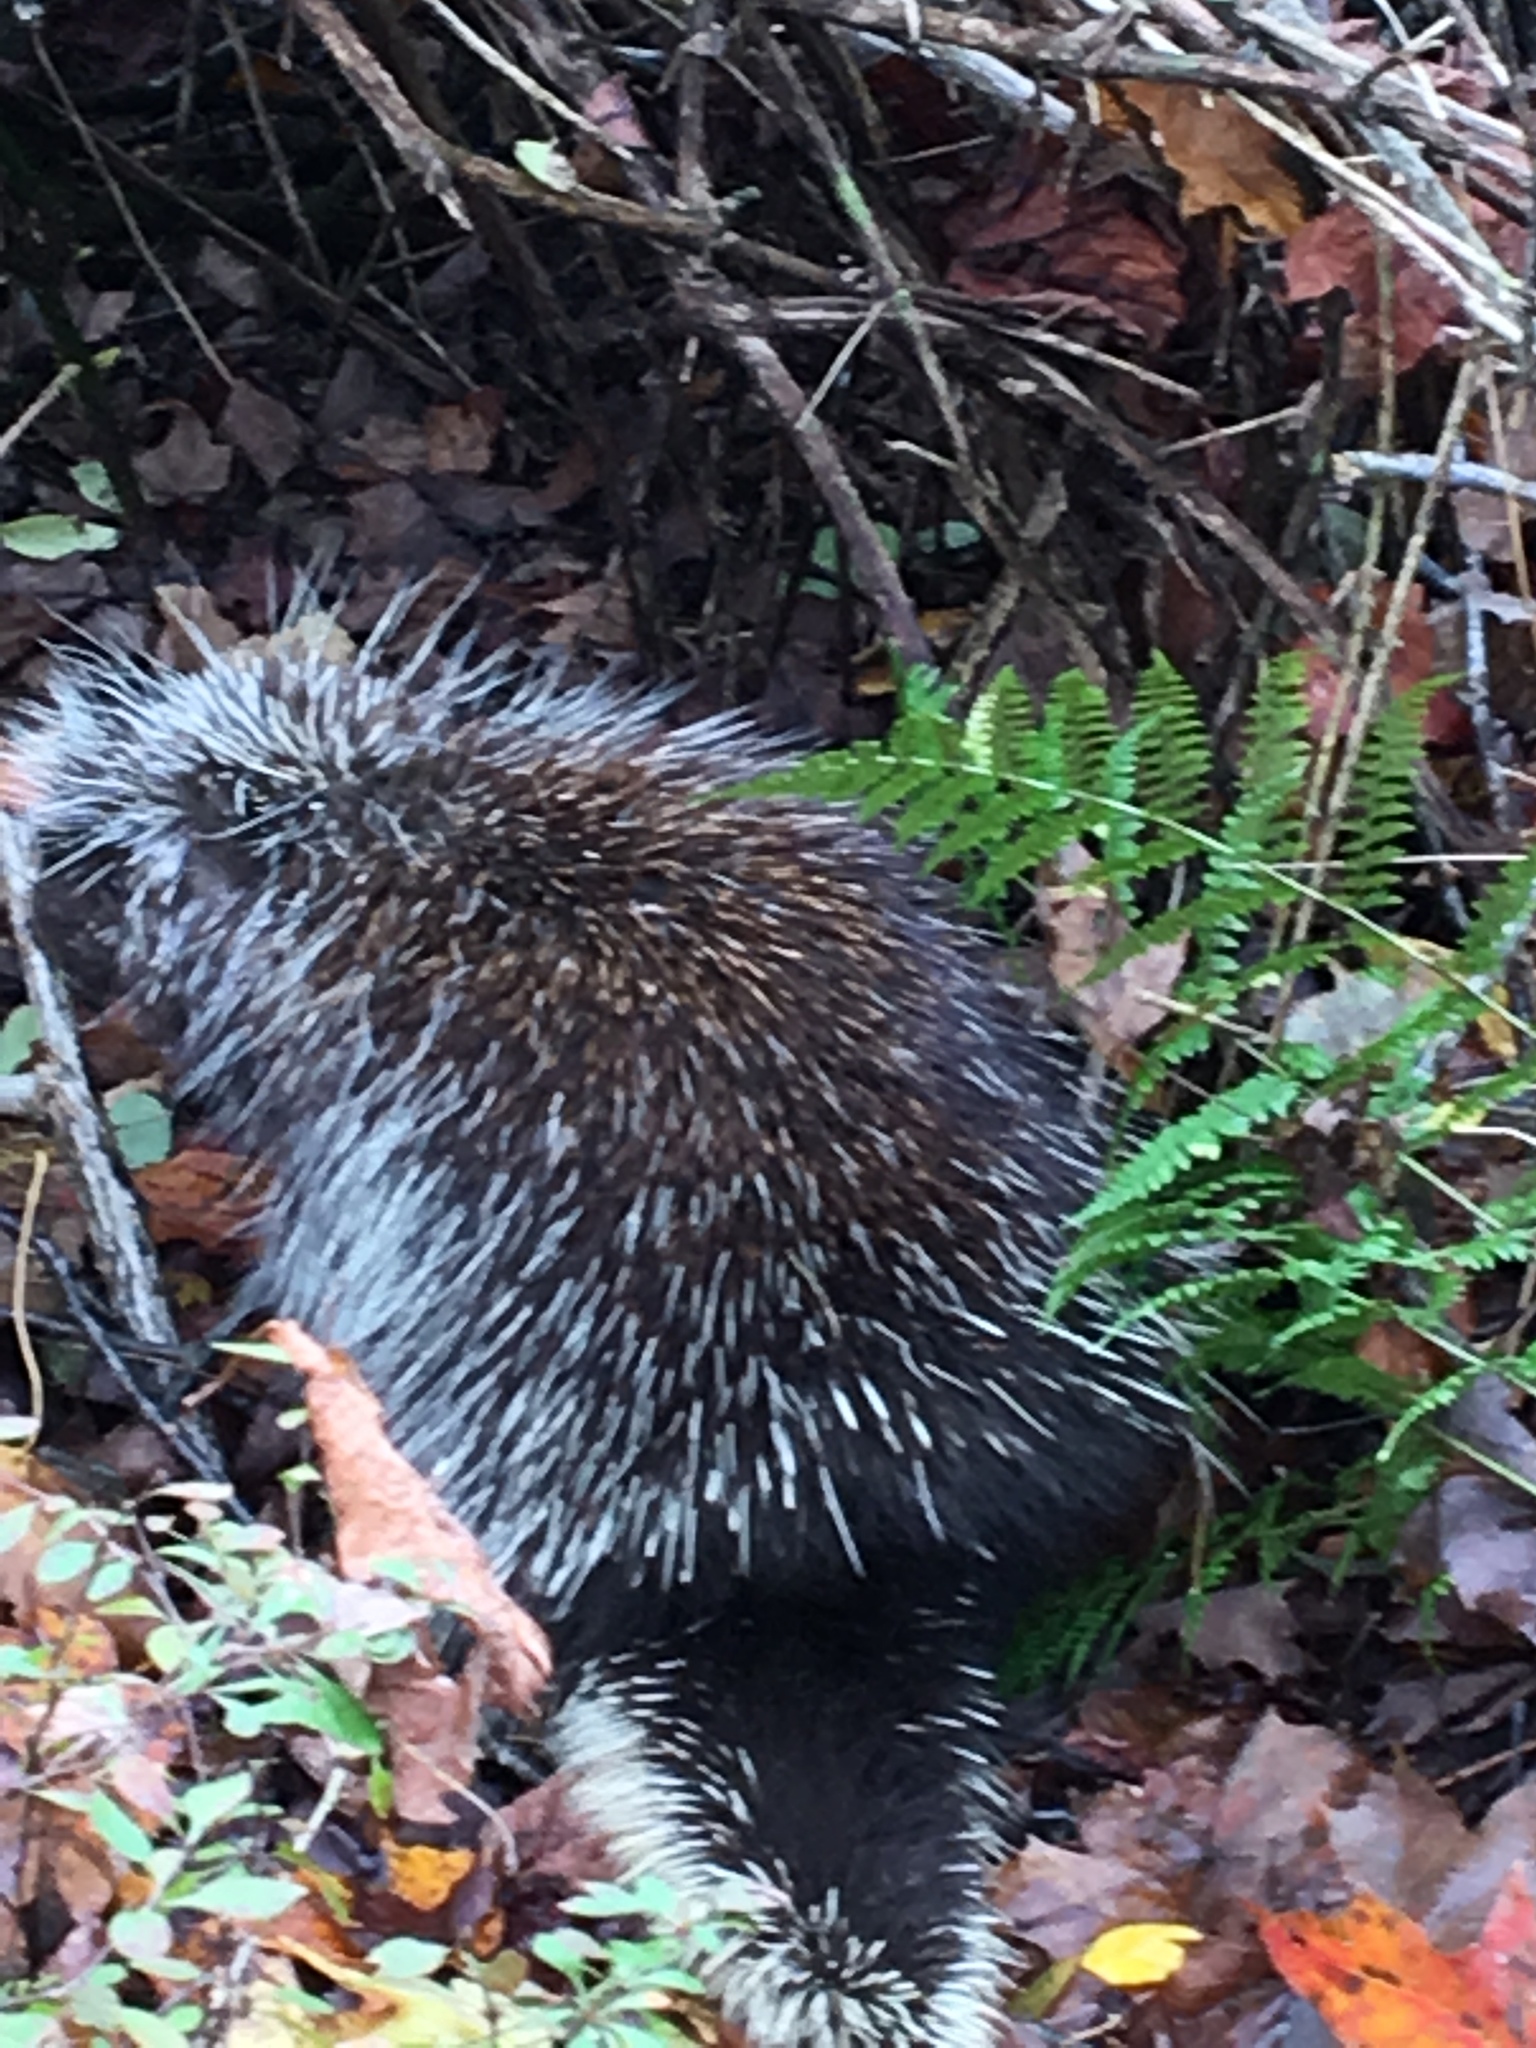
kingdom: Animalia
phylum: Chordata
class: Mammalia
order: Rodentia
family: Erethizontidae
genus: Erethizon
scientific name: Erethizon dorsatus
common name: North american porcupine
